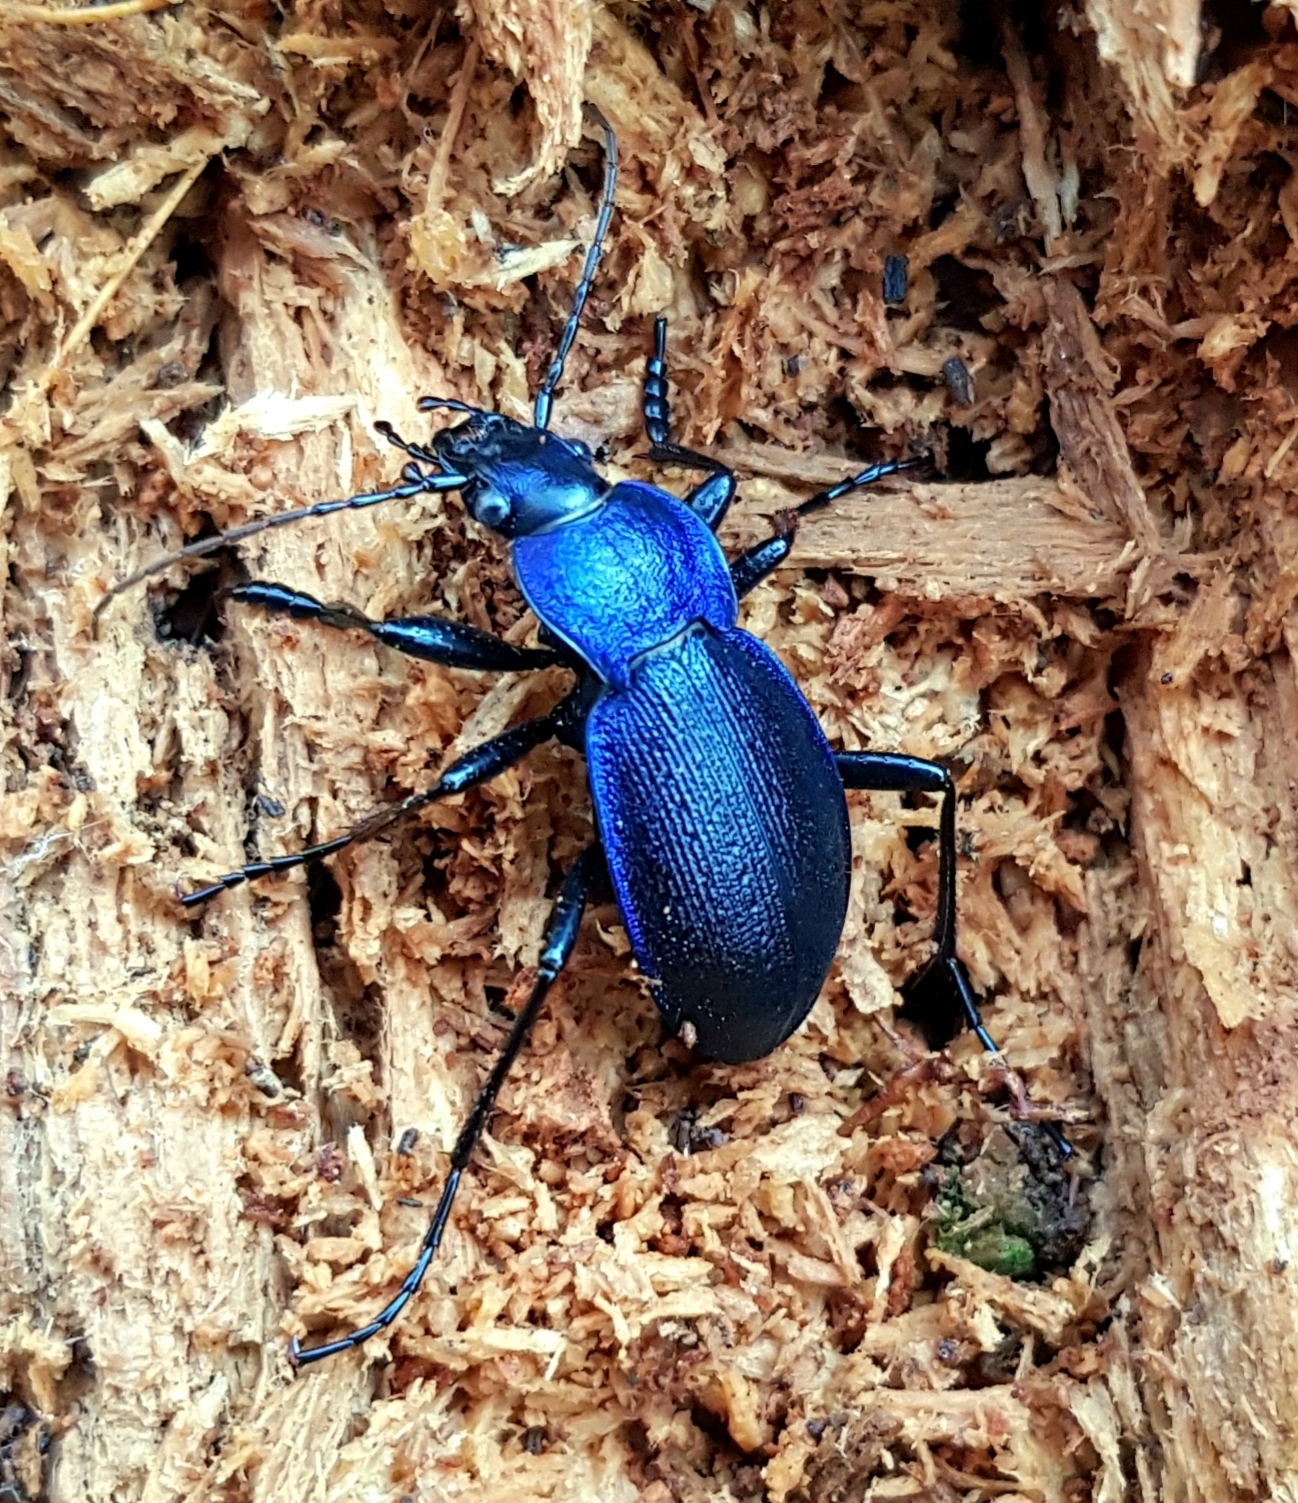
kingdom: Animalia
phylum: Arthropoda
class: Insecta
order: Coleoptera
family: Carabidae
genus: Carabus
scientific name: Carabus problematicus
